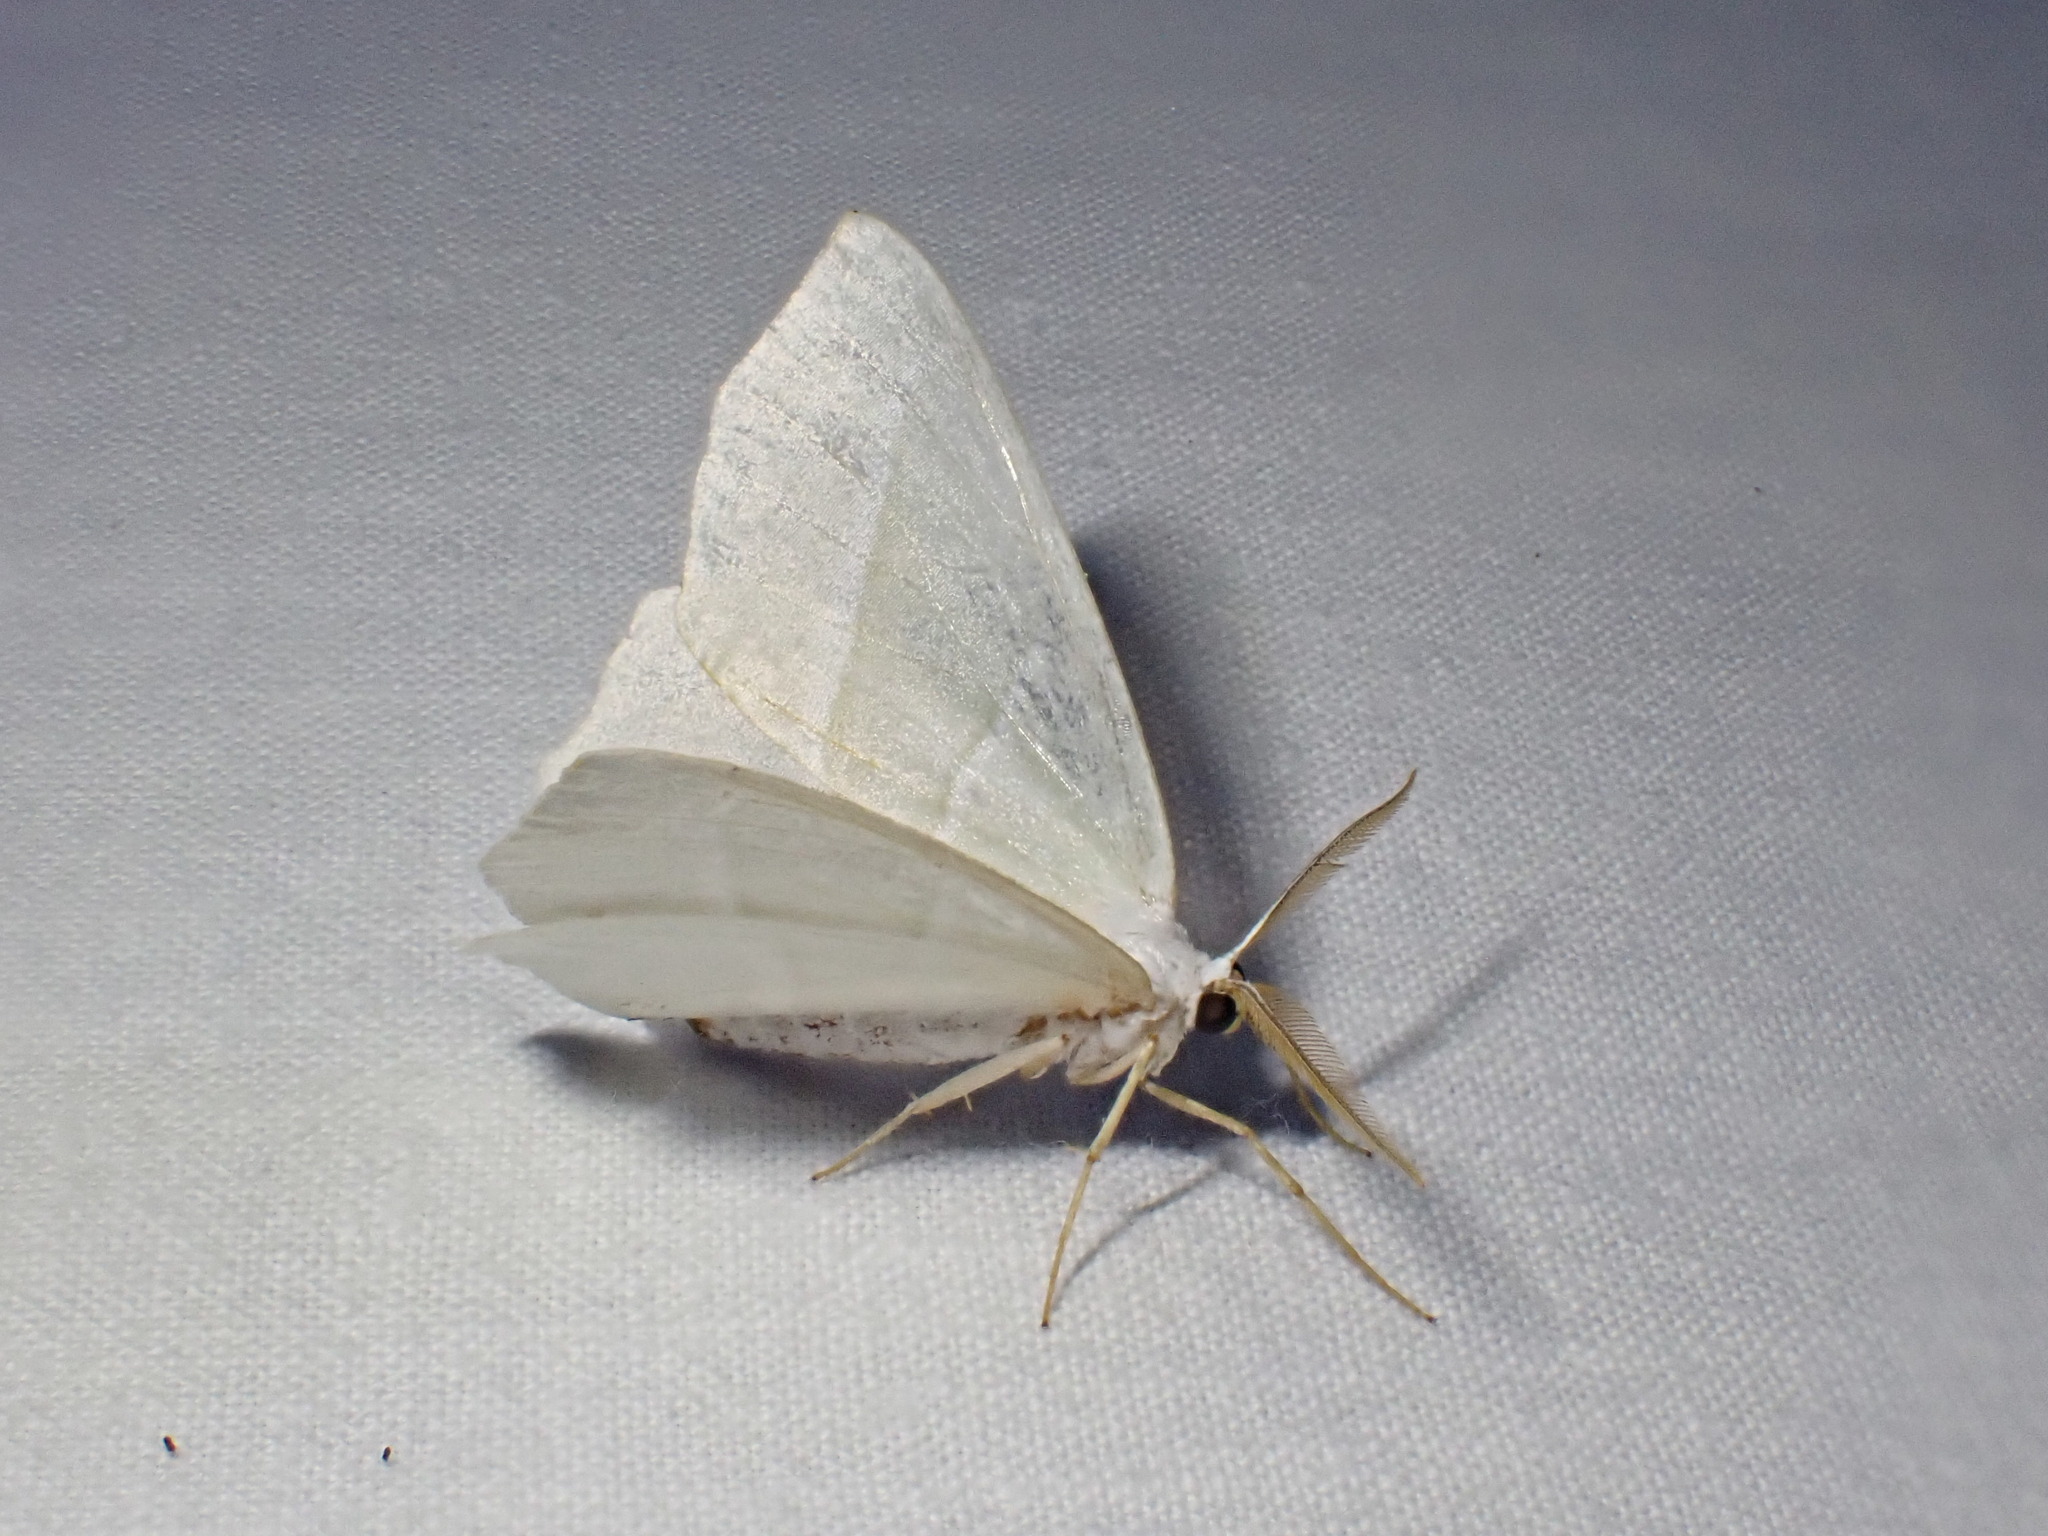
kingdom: Animalia
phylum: Arthropoda
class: Insecta
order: Lepidoptera
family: Geometridae
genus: Campaea
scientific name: Campaea margaritaria
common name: Light emerald
